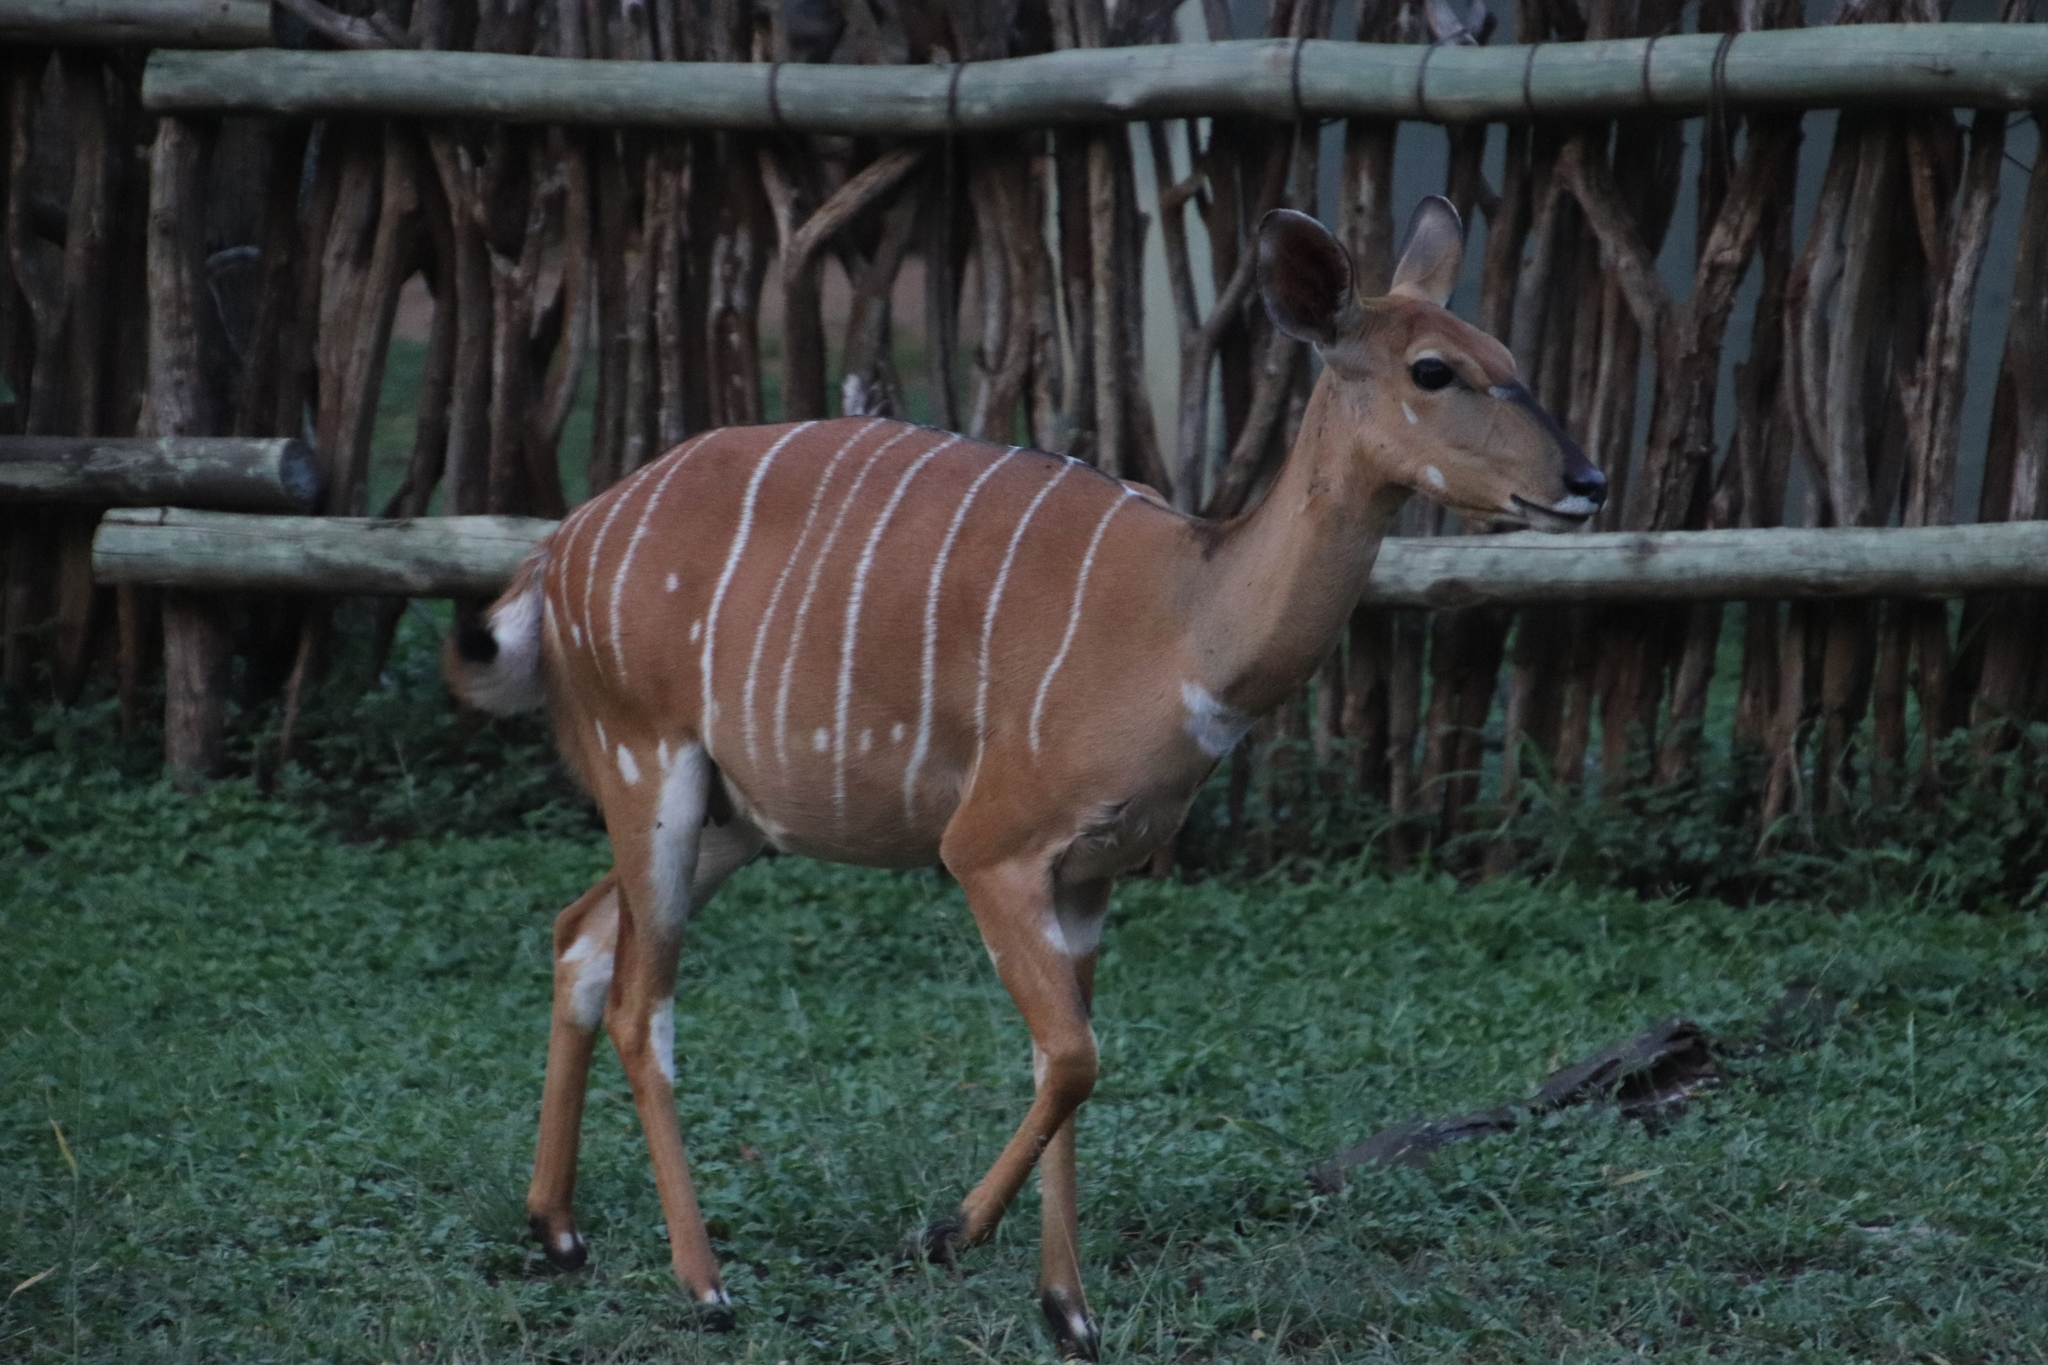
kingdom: Animalia
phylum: Chordata
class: Mammalia
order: Artiodactyla
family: Bovidae
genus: Tragelaphus
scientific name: Tragelaphus angasii
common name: Nyala
